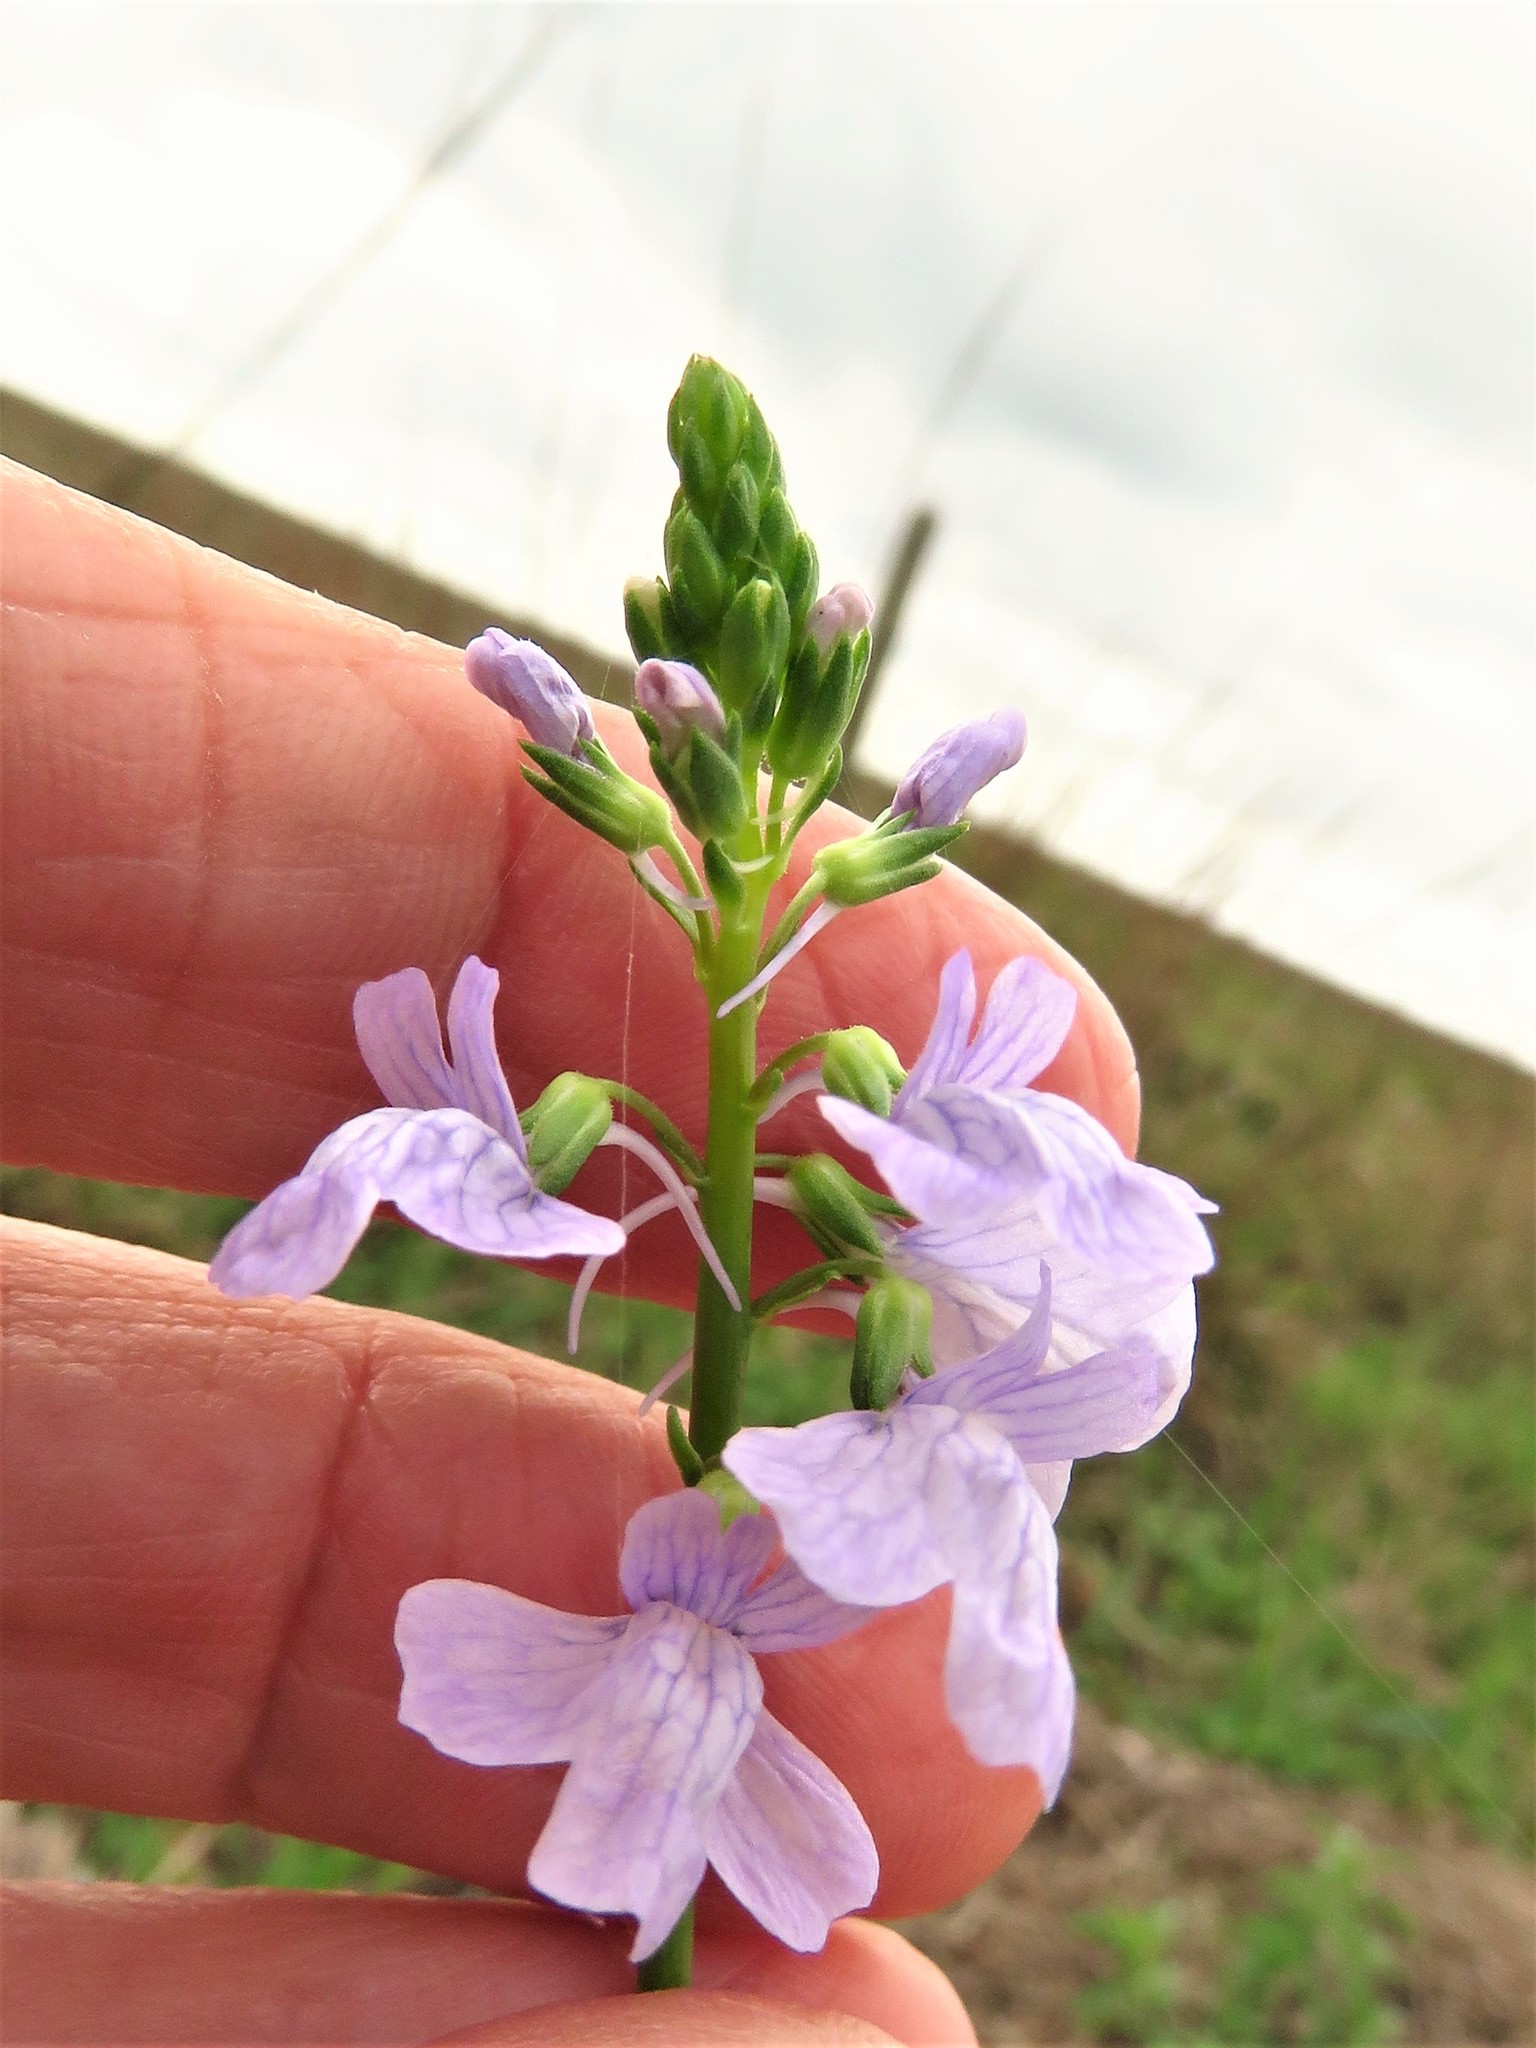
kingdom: Plantae
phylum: Tracheophyta
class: Magnoliopsida
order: Lamiales
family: Plantaginaceae
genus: Nuttallanthus
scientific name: Nuttallanthus texanus
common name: Texas toadflax
